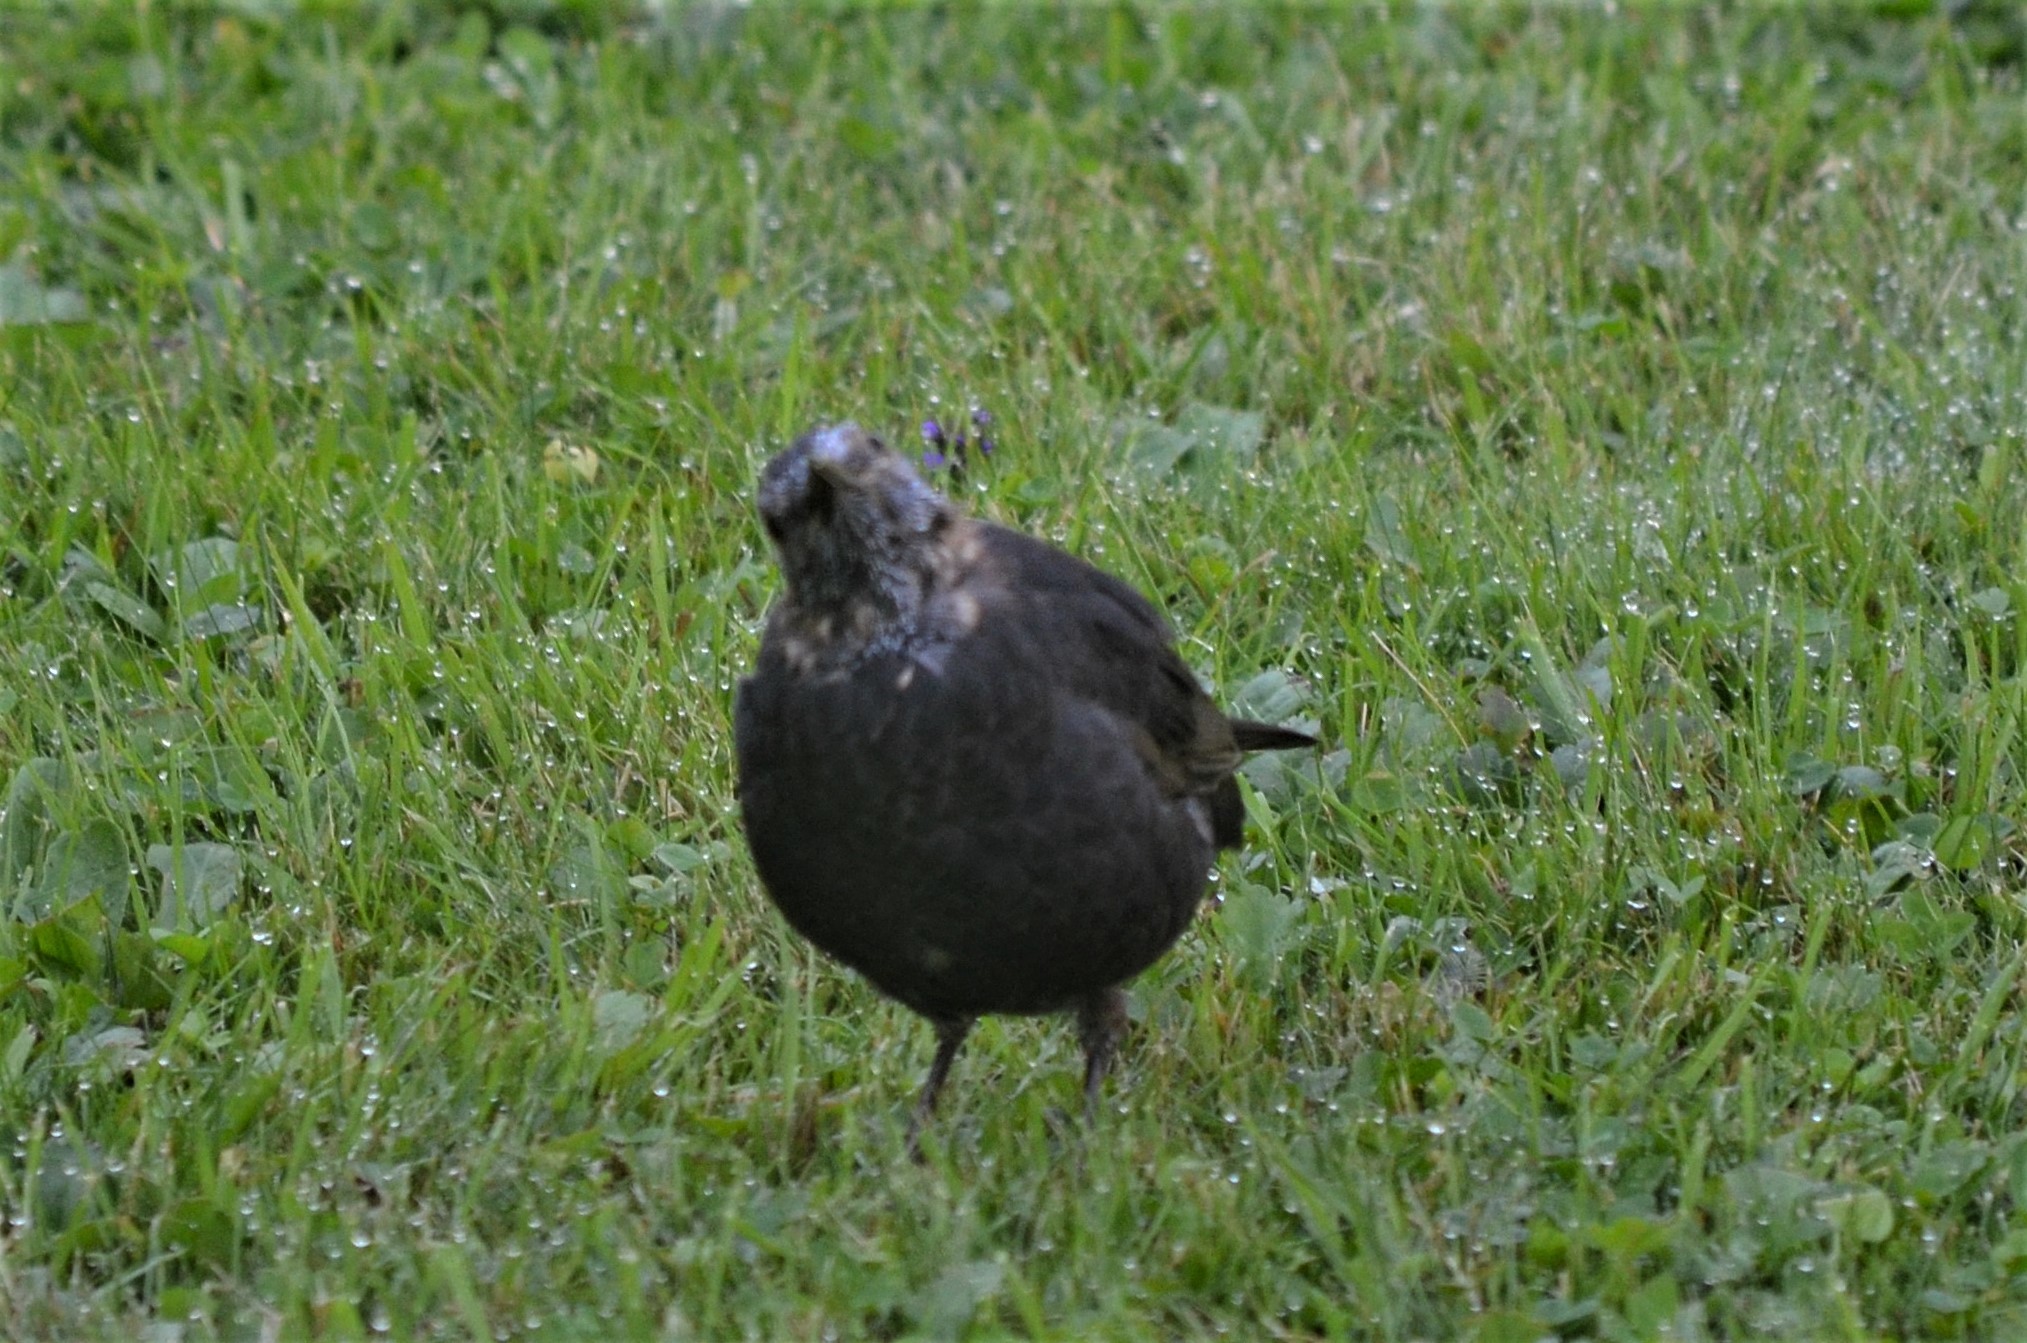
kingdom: Animalia
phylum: Chordata
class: Aves
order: Passeriformes
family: Turdidae
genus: Turdus
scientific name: Turdus merula
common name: Common blackbird
